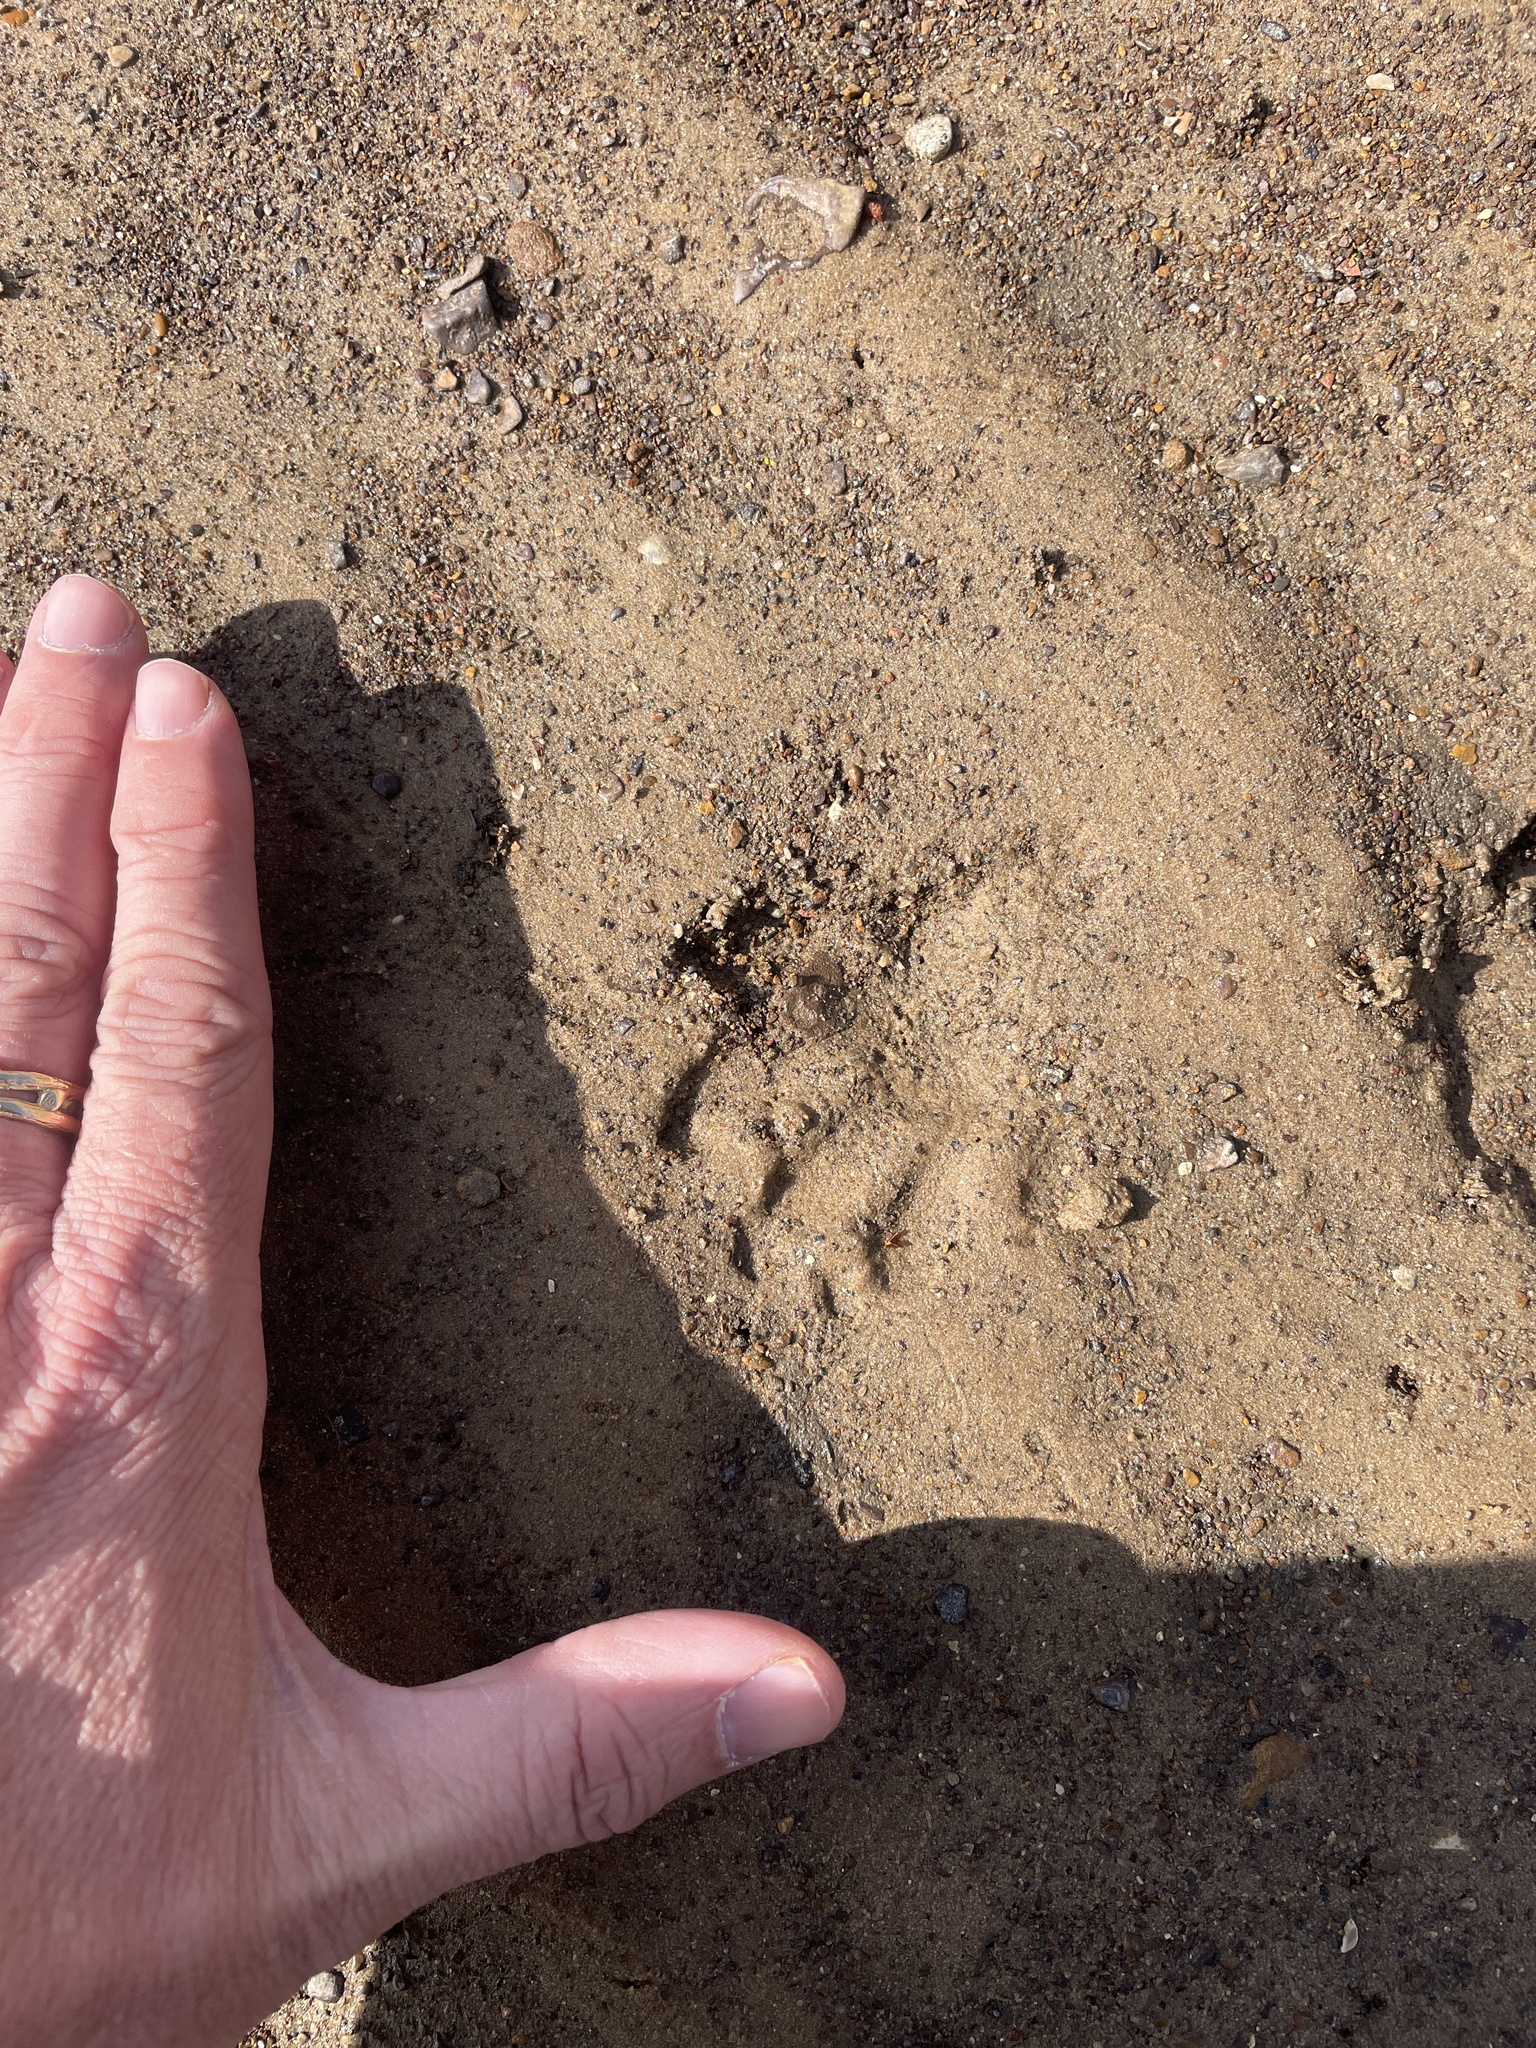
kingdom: Animalia
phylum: Chordata
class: Mammalia
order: Carnivora
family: Procyonidae
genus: Procyon
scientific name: Procyon lotor
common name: Raccoon
